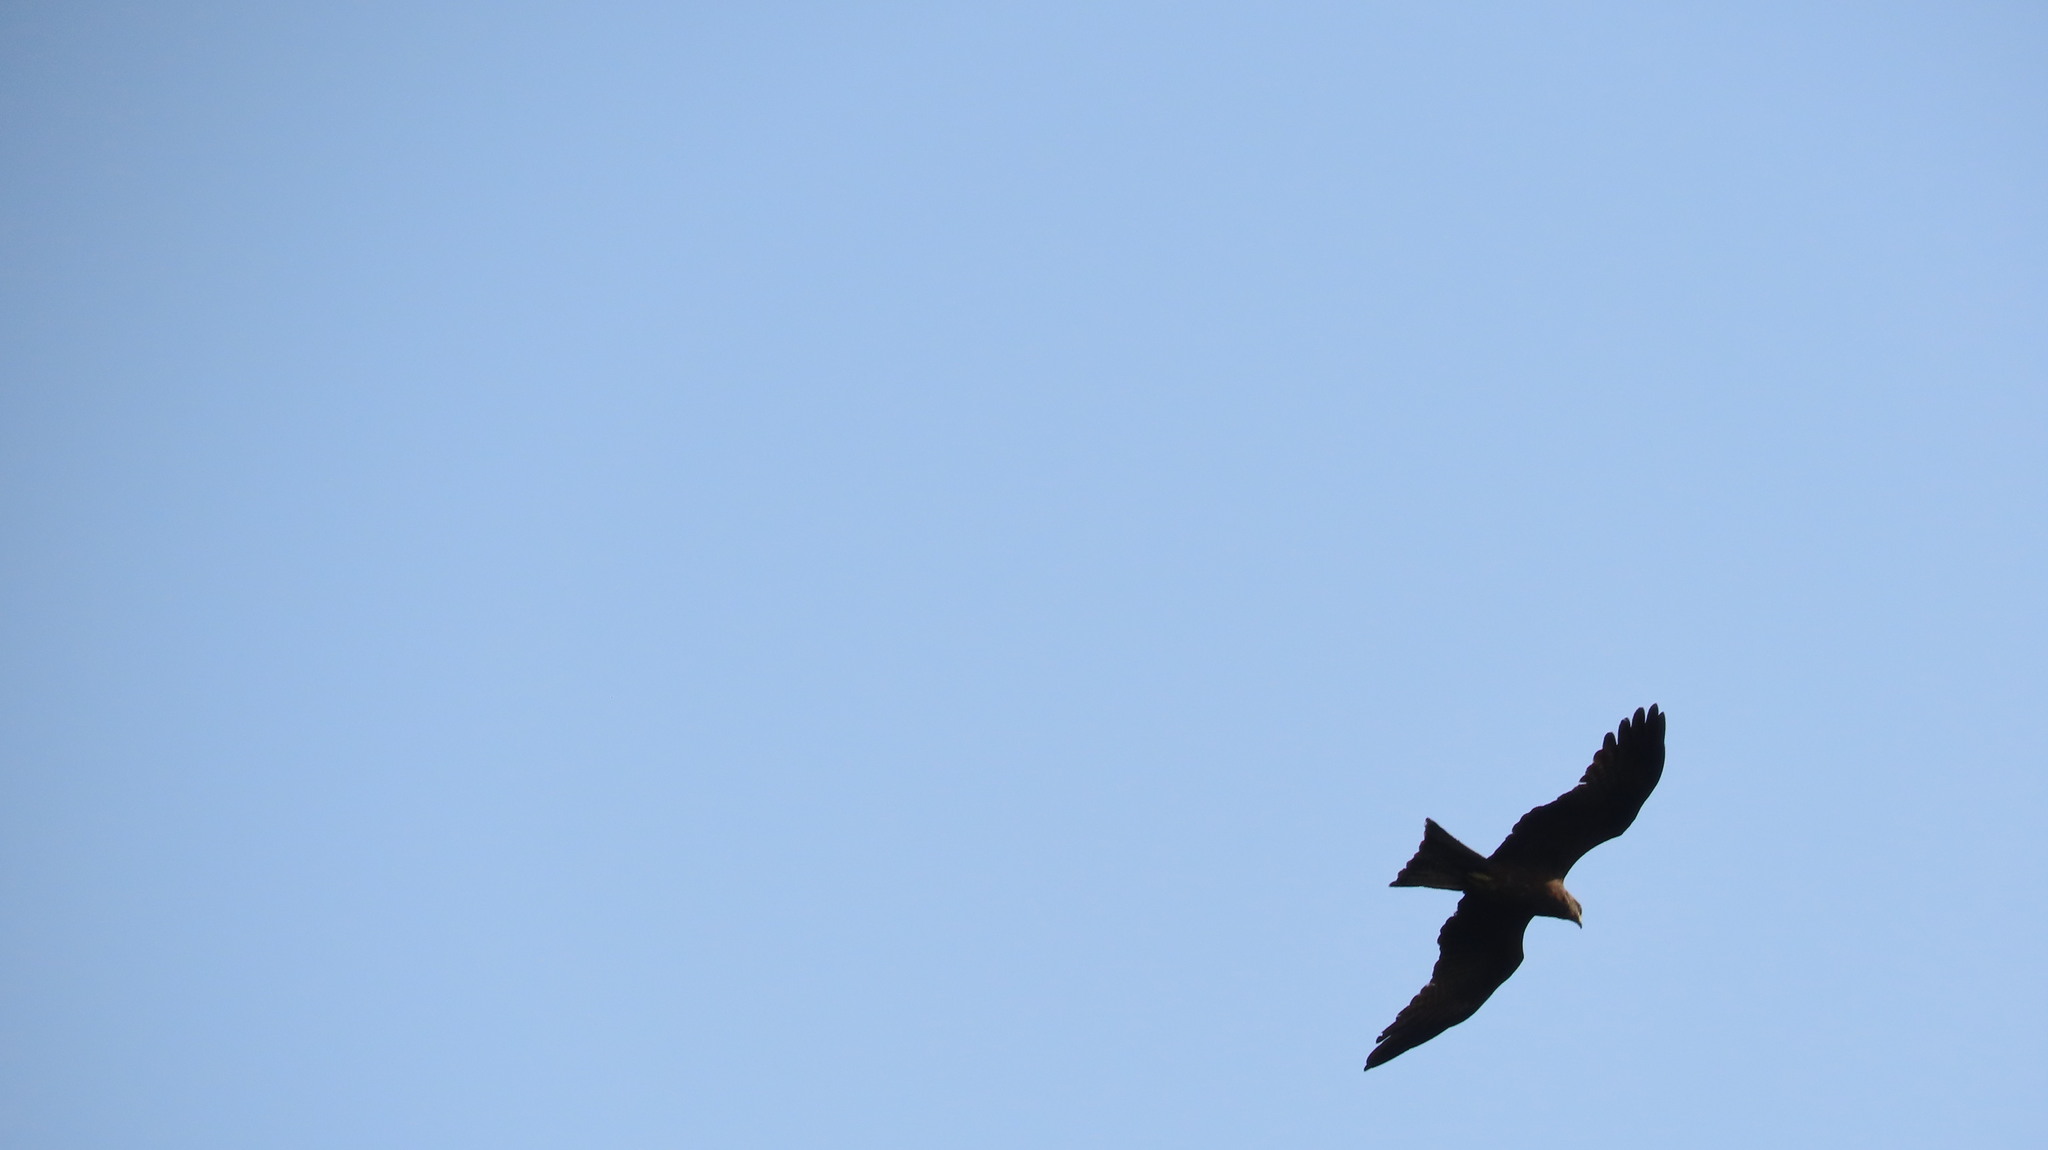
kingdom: Animalia
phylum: Chordata
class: Aves
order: Accipitriformes
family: Accipitridae
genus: Milvus
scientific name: Milvus migrans
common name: Black kite
